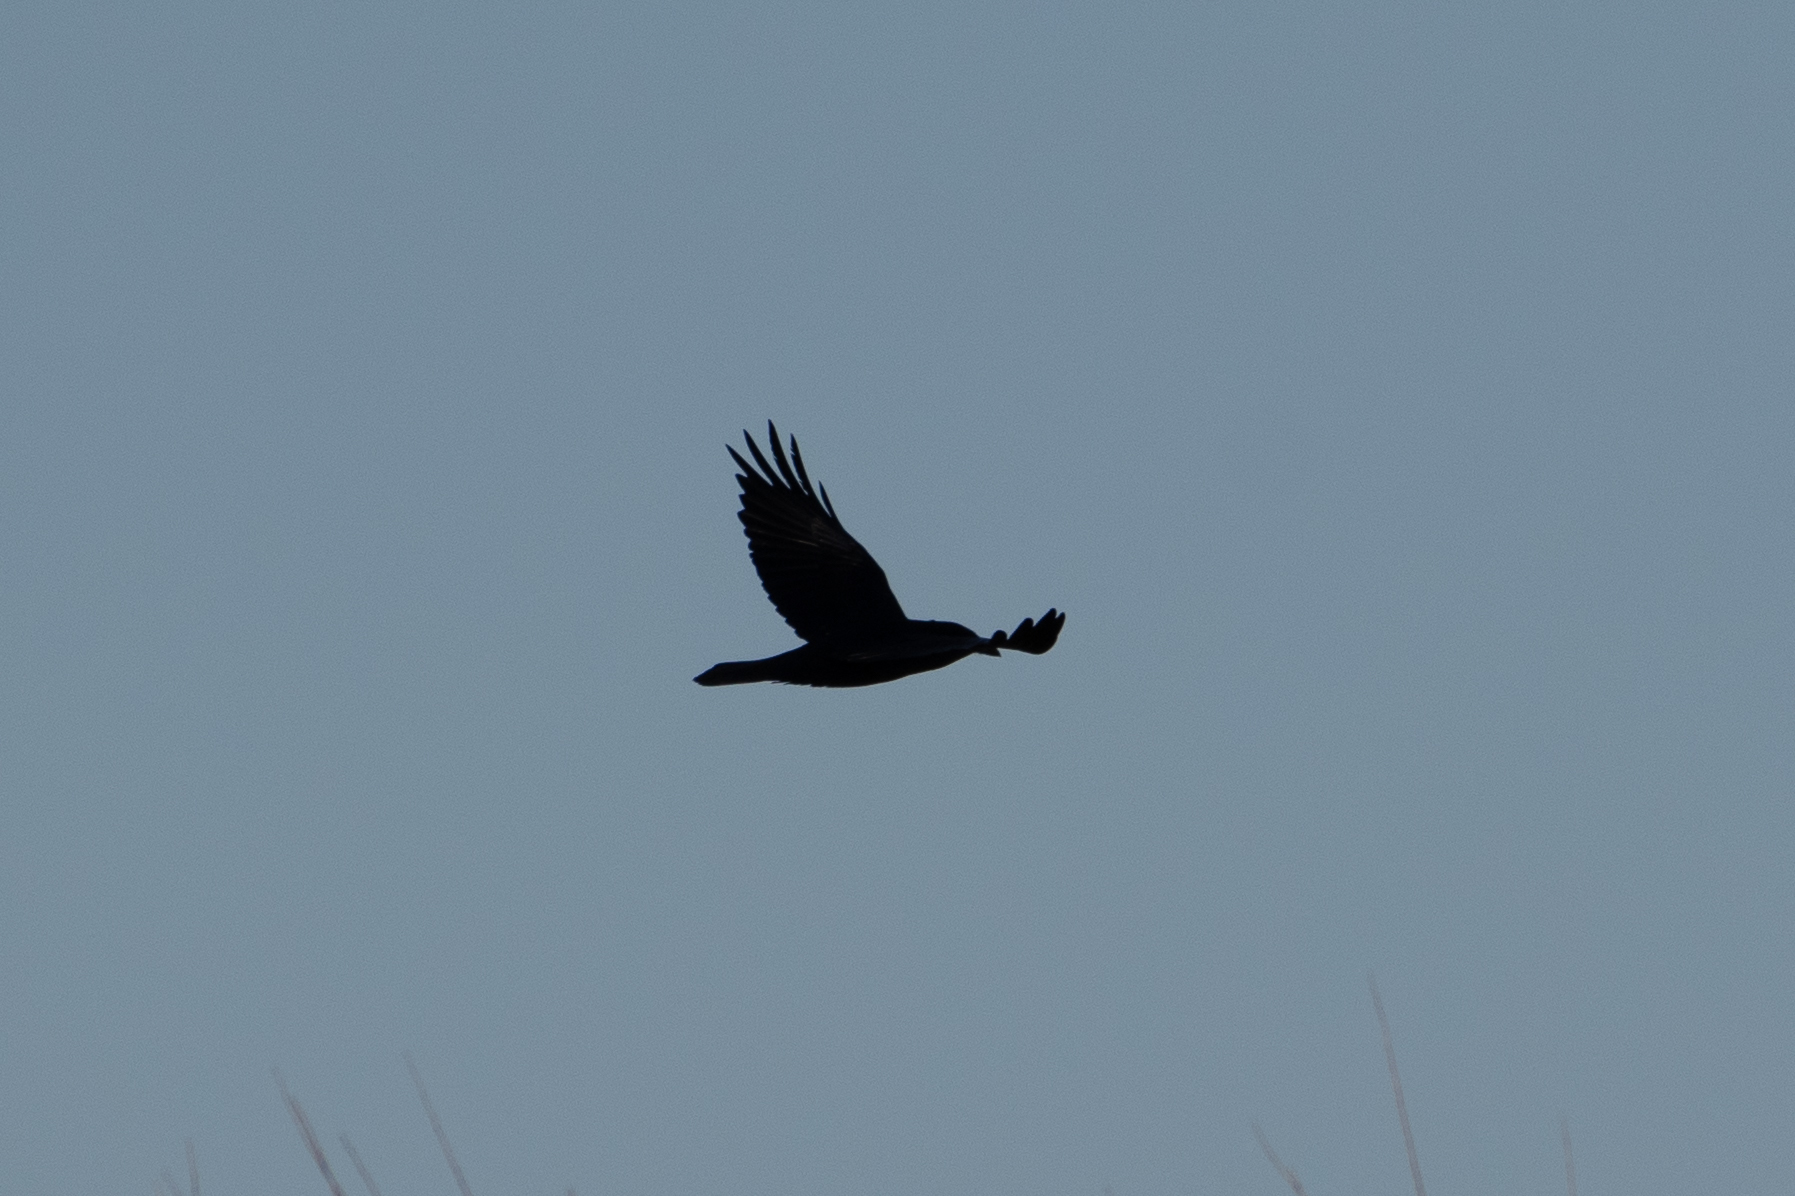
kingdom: Animalia
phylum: Chordata
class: Aves
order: Passeriformes
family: Corvidae
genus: Corvus
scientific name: Corvus corax
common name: Common raven
